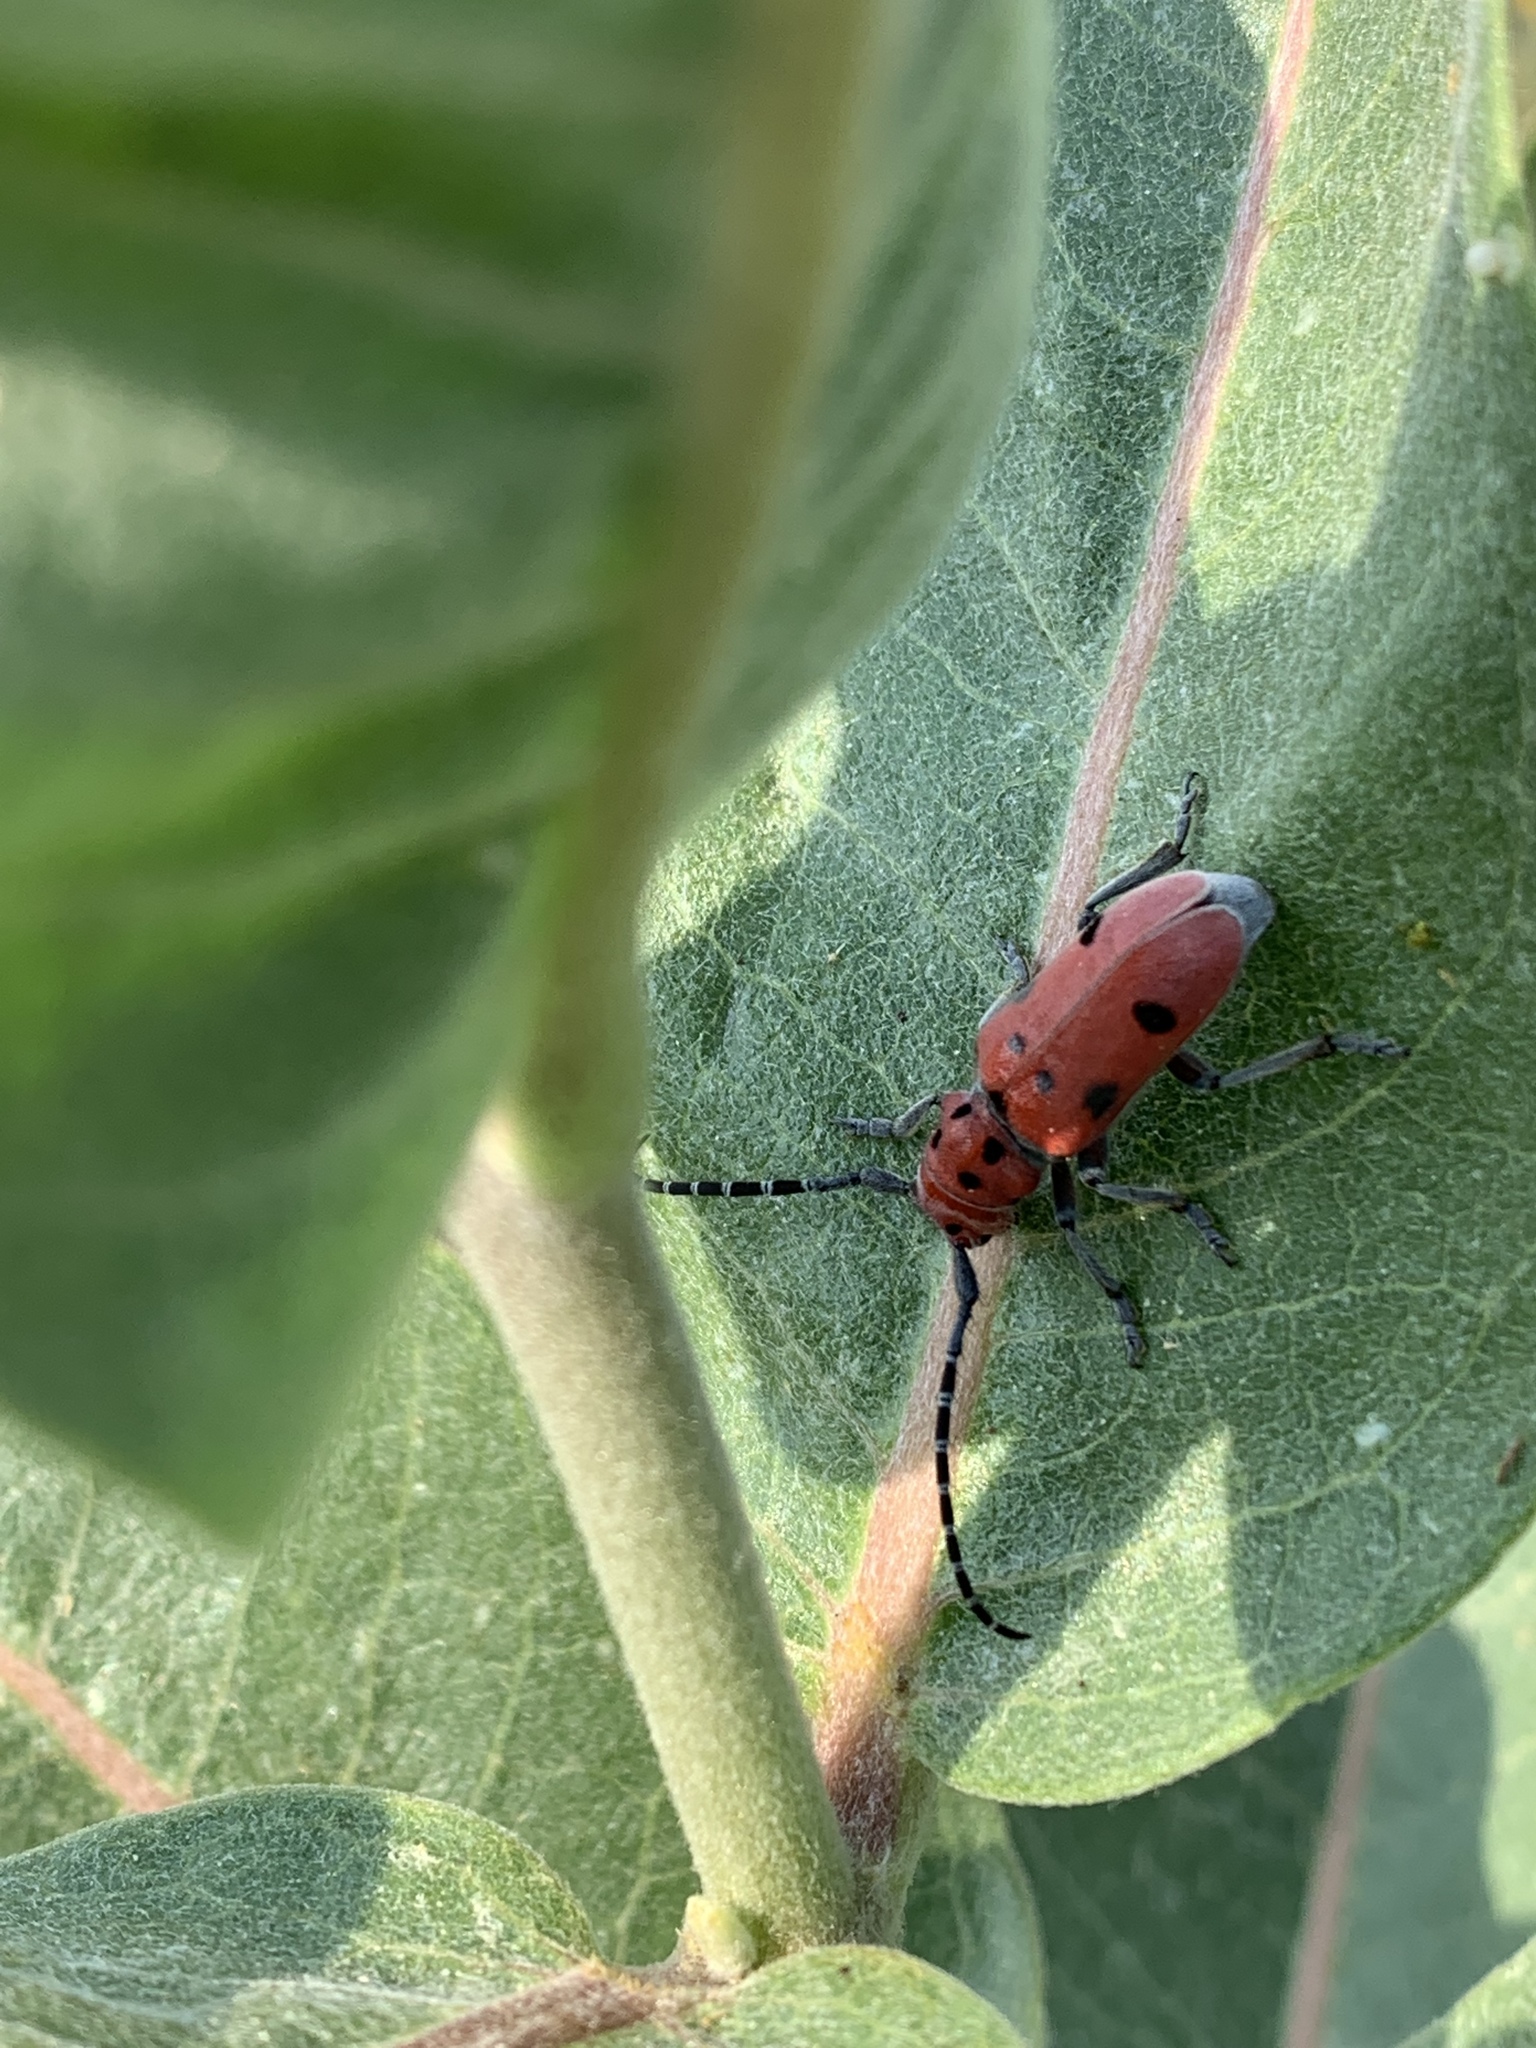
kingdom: Animalia
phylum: Arthropoda
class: Insecta
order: Coleoptera
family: Cerambycidae
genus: Tetraopes
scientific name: Tetraopes annulatus
